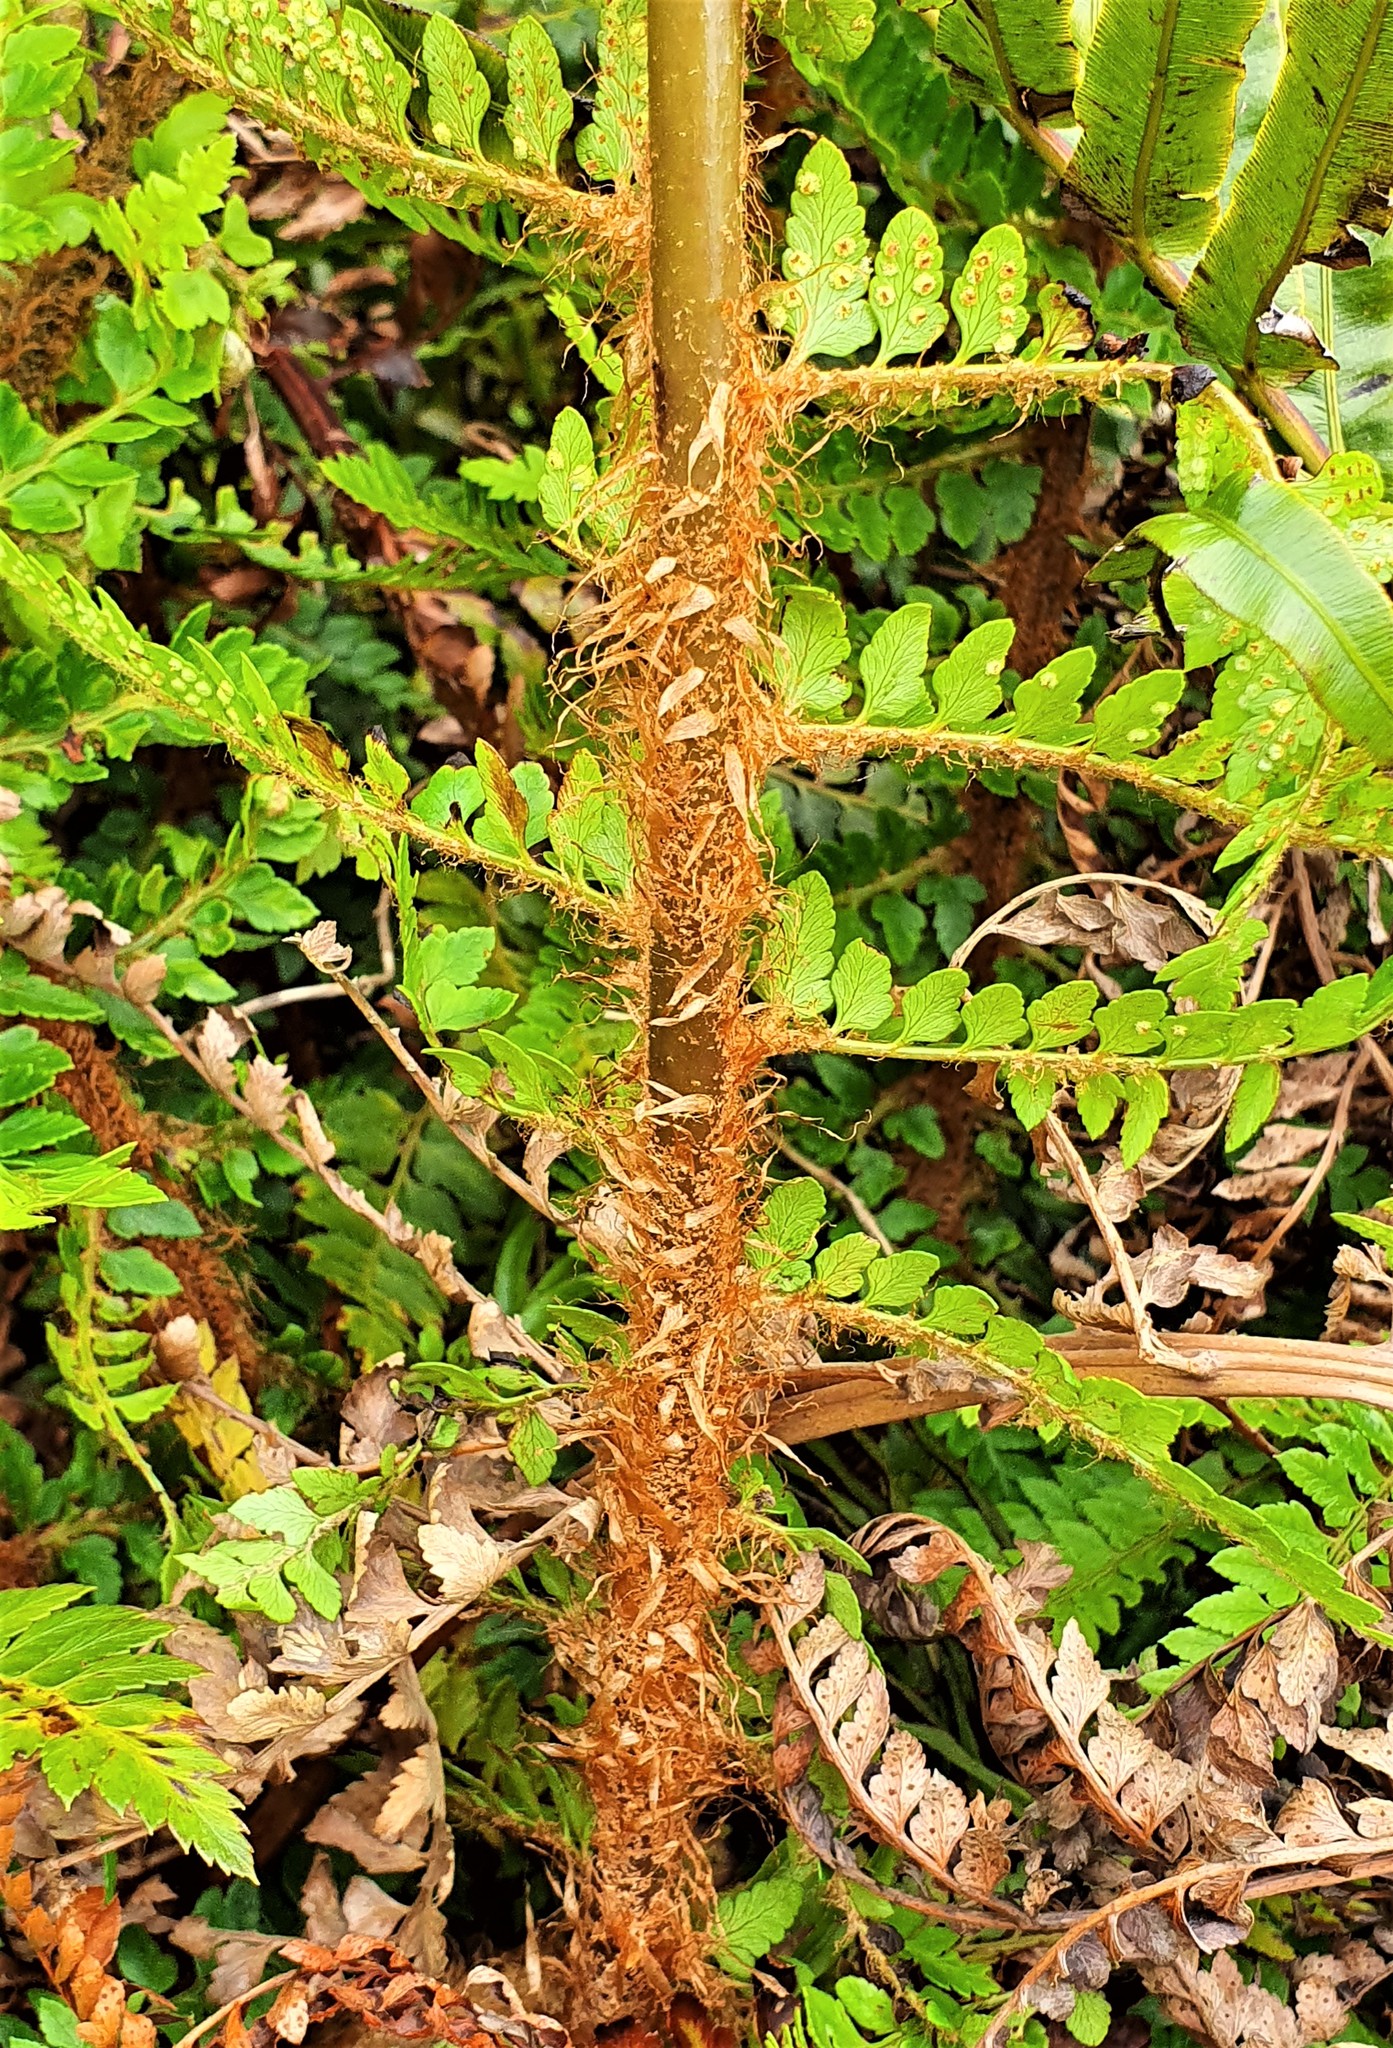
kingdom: Plantae
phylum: Tracheophyta
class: Polypodiopsida
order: Polypodiales
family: Dryopteridaceae
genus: Polystichum
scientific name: Polystichum vestitum
